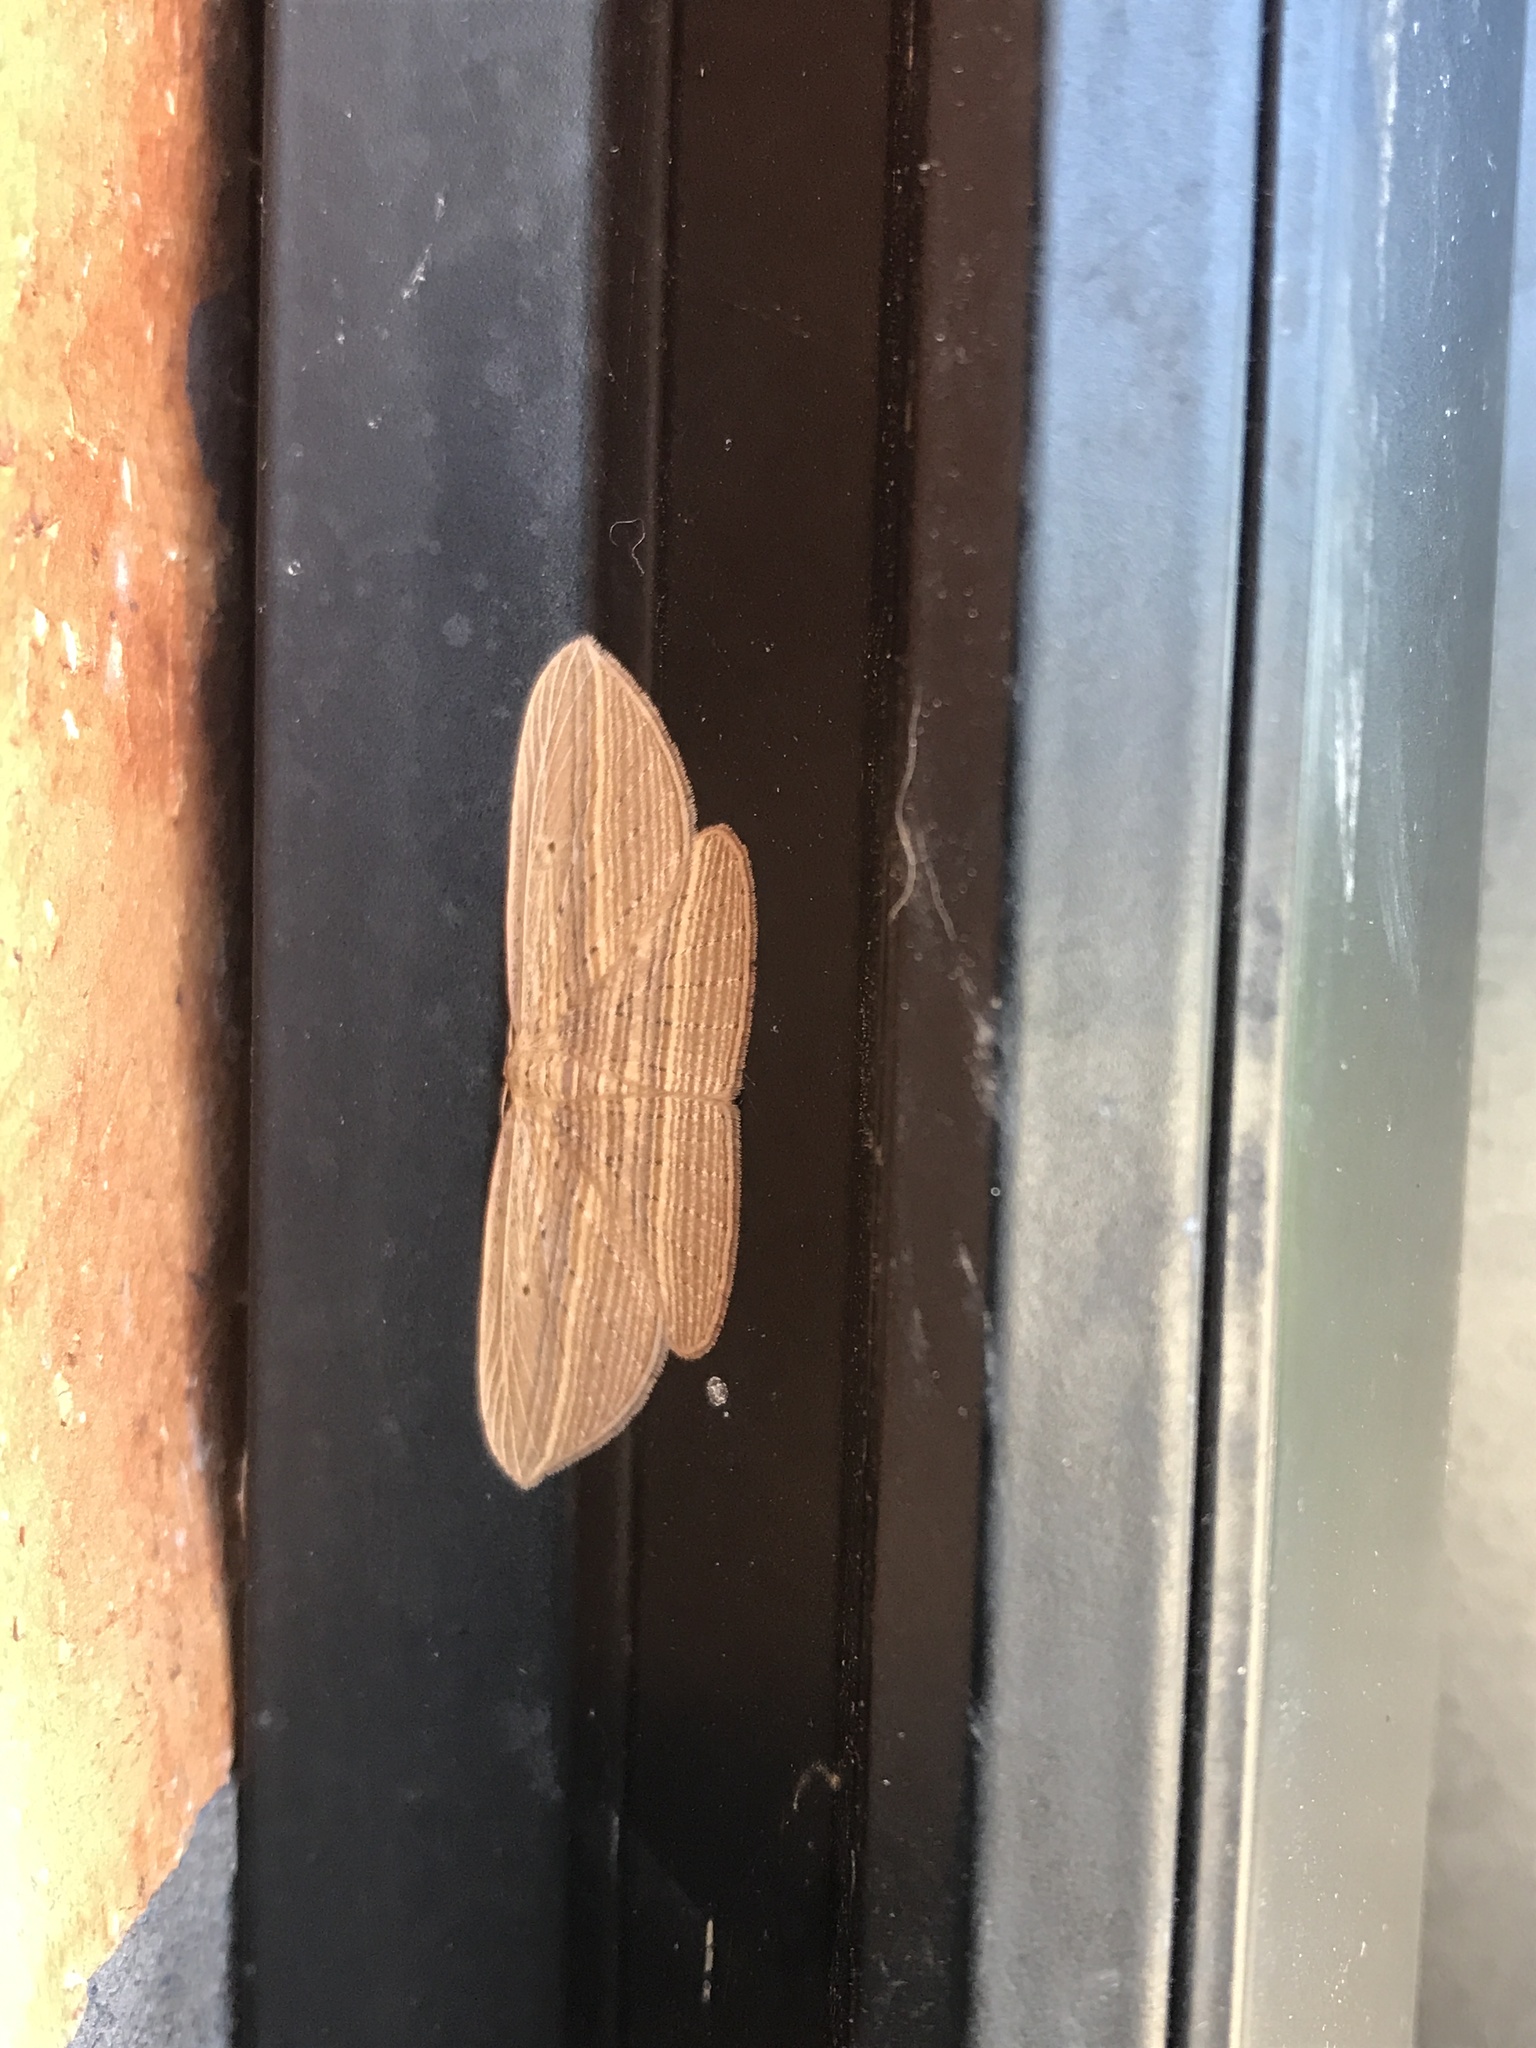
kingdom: Animalia
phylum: Arthropoda
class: Insecta
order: Lepidoptera
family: Geometridae
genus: Epiphryne
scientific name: Epiphryne verriculata
